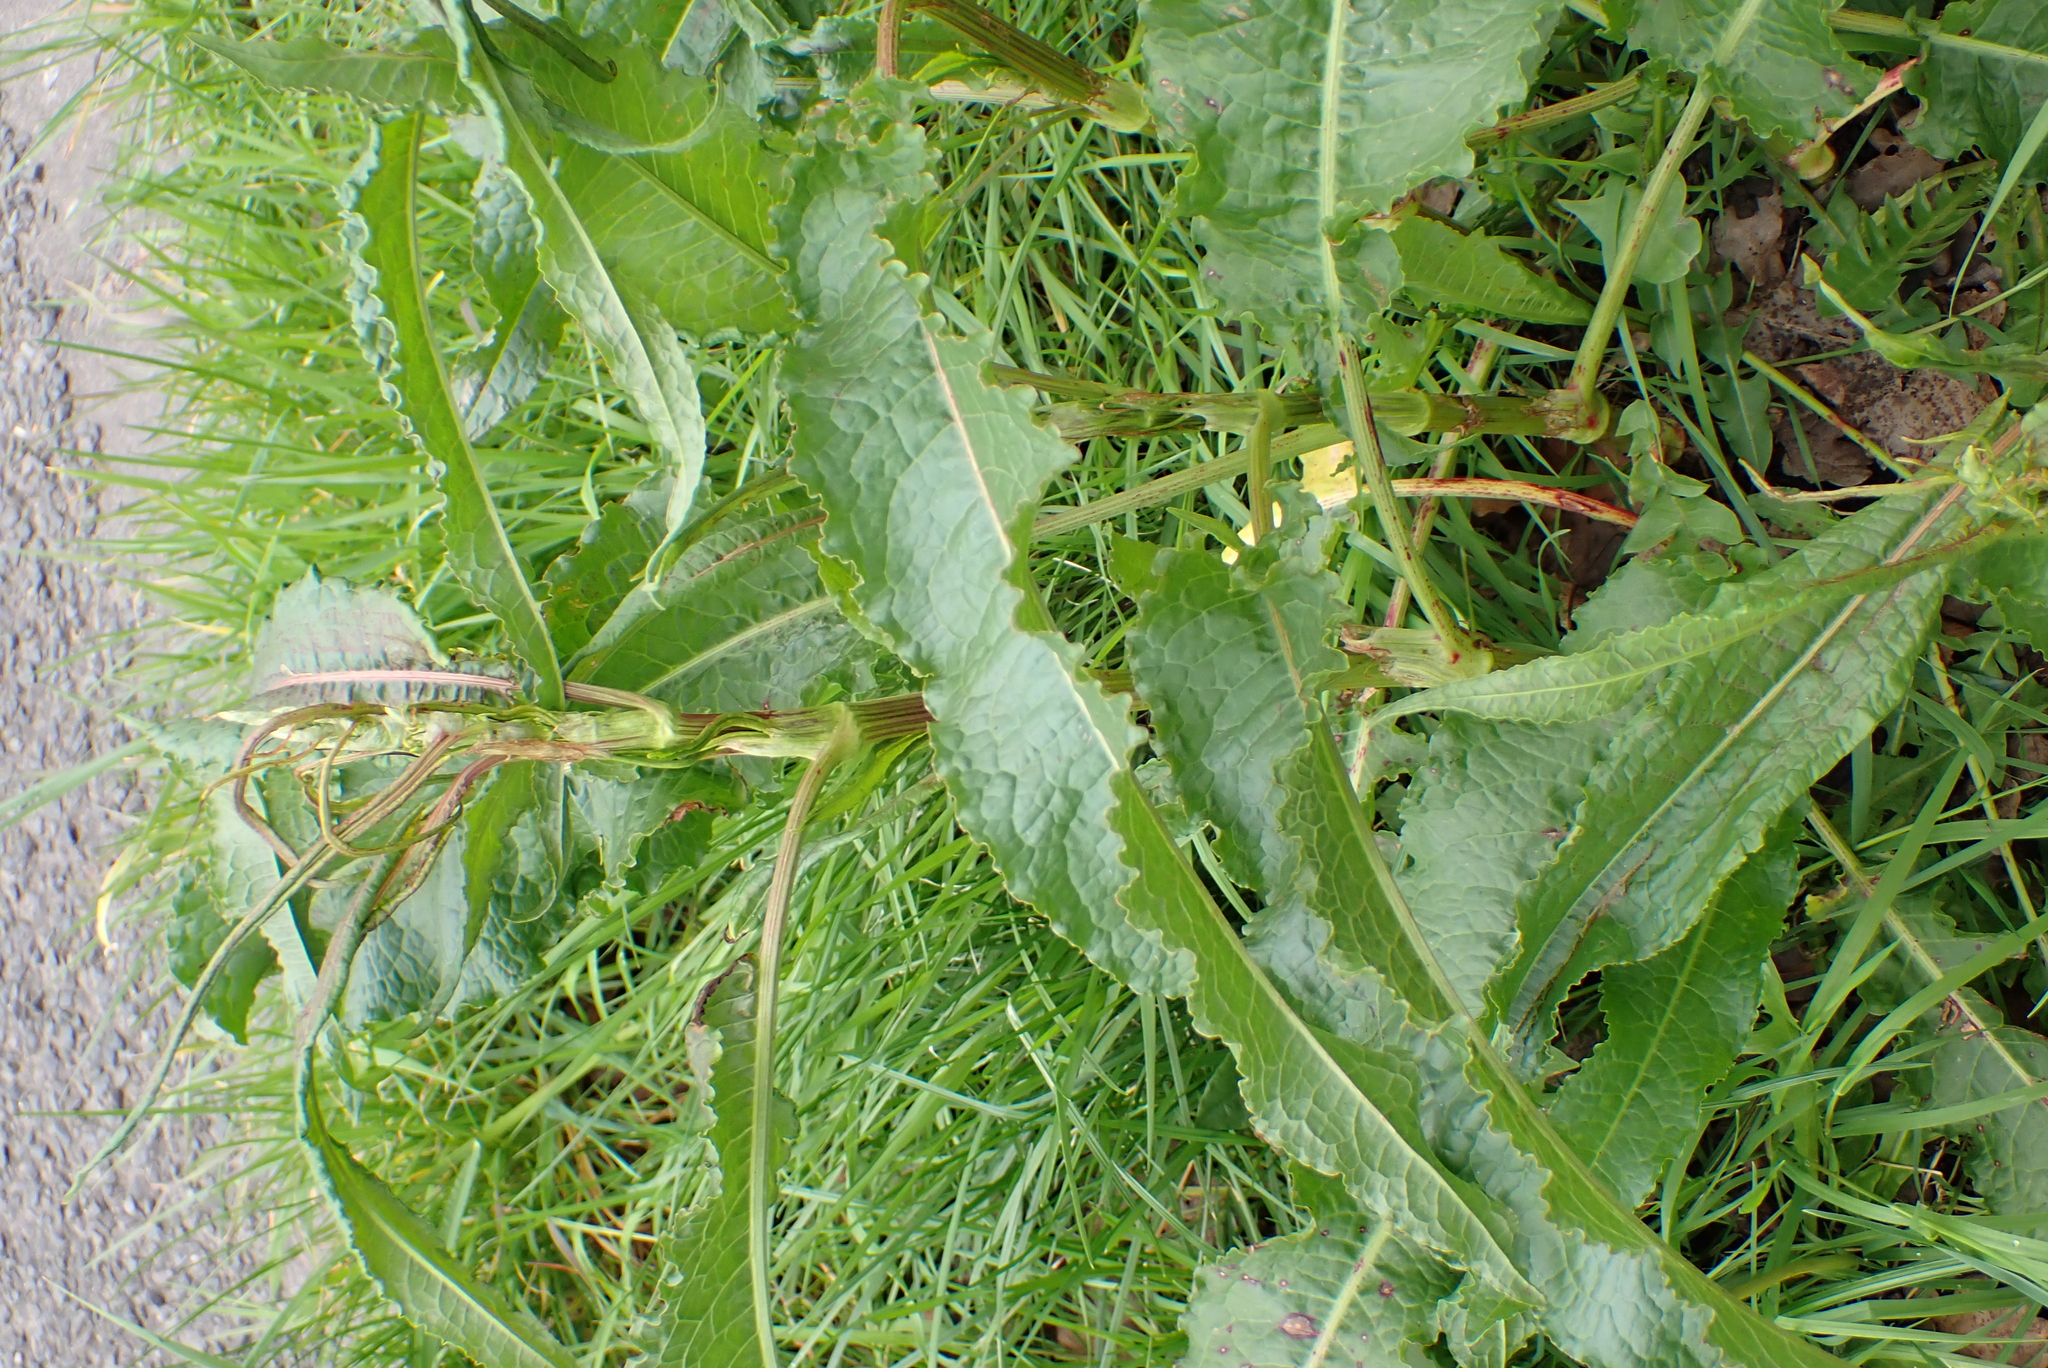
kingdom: Plantae
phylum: Tracheophyta
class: Magnoliopsida
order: Caryophyllales
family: Polygonaceae
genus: Rumex
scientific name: Rumex crispus
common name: Curled dock
